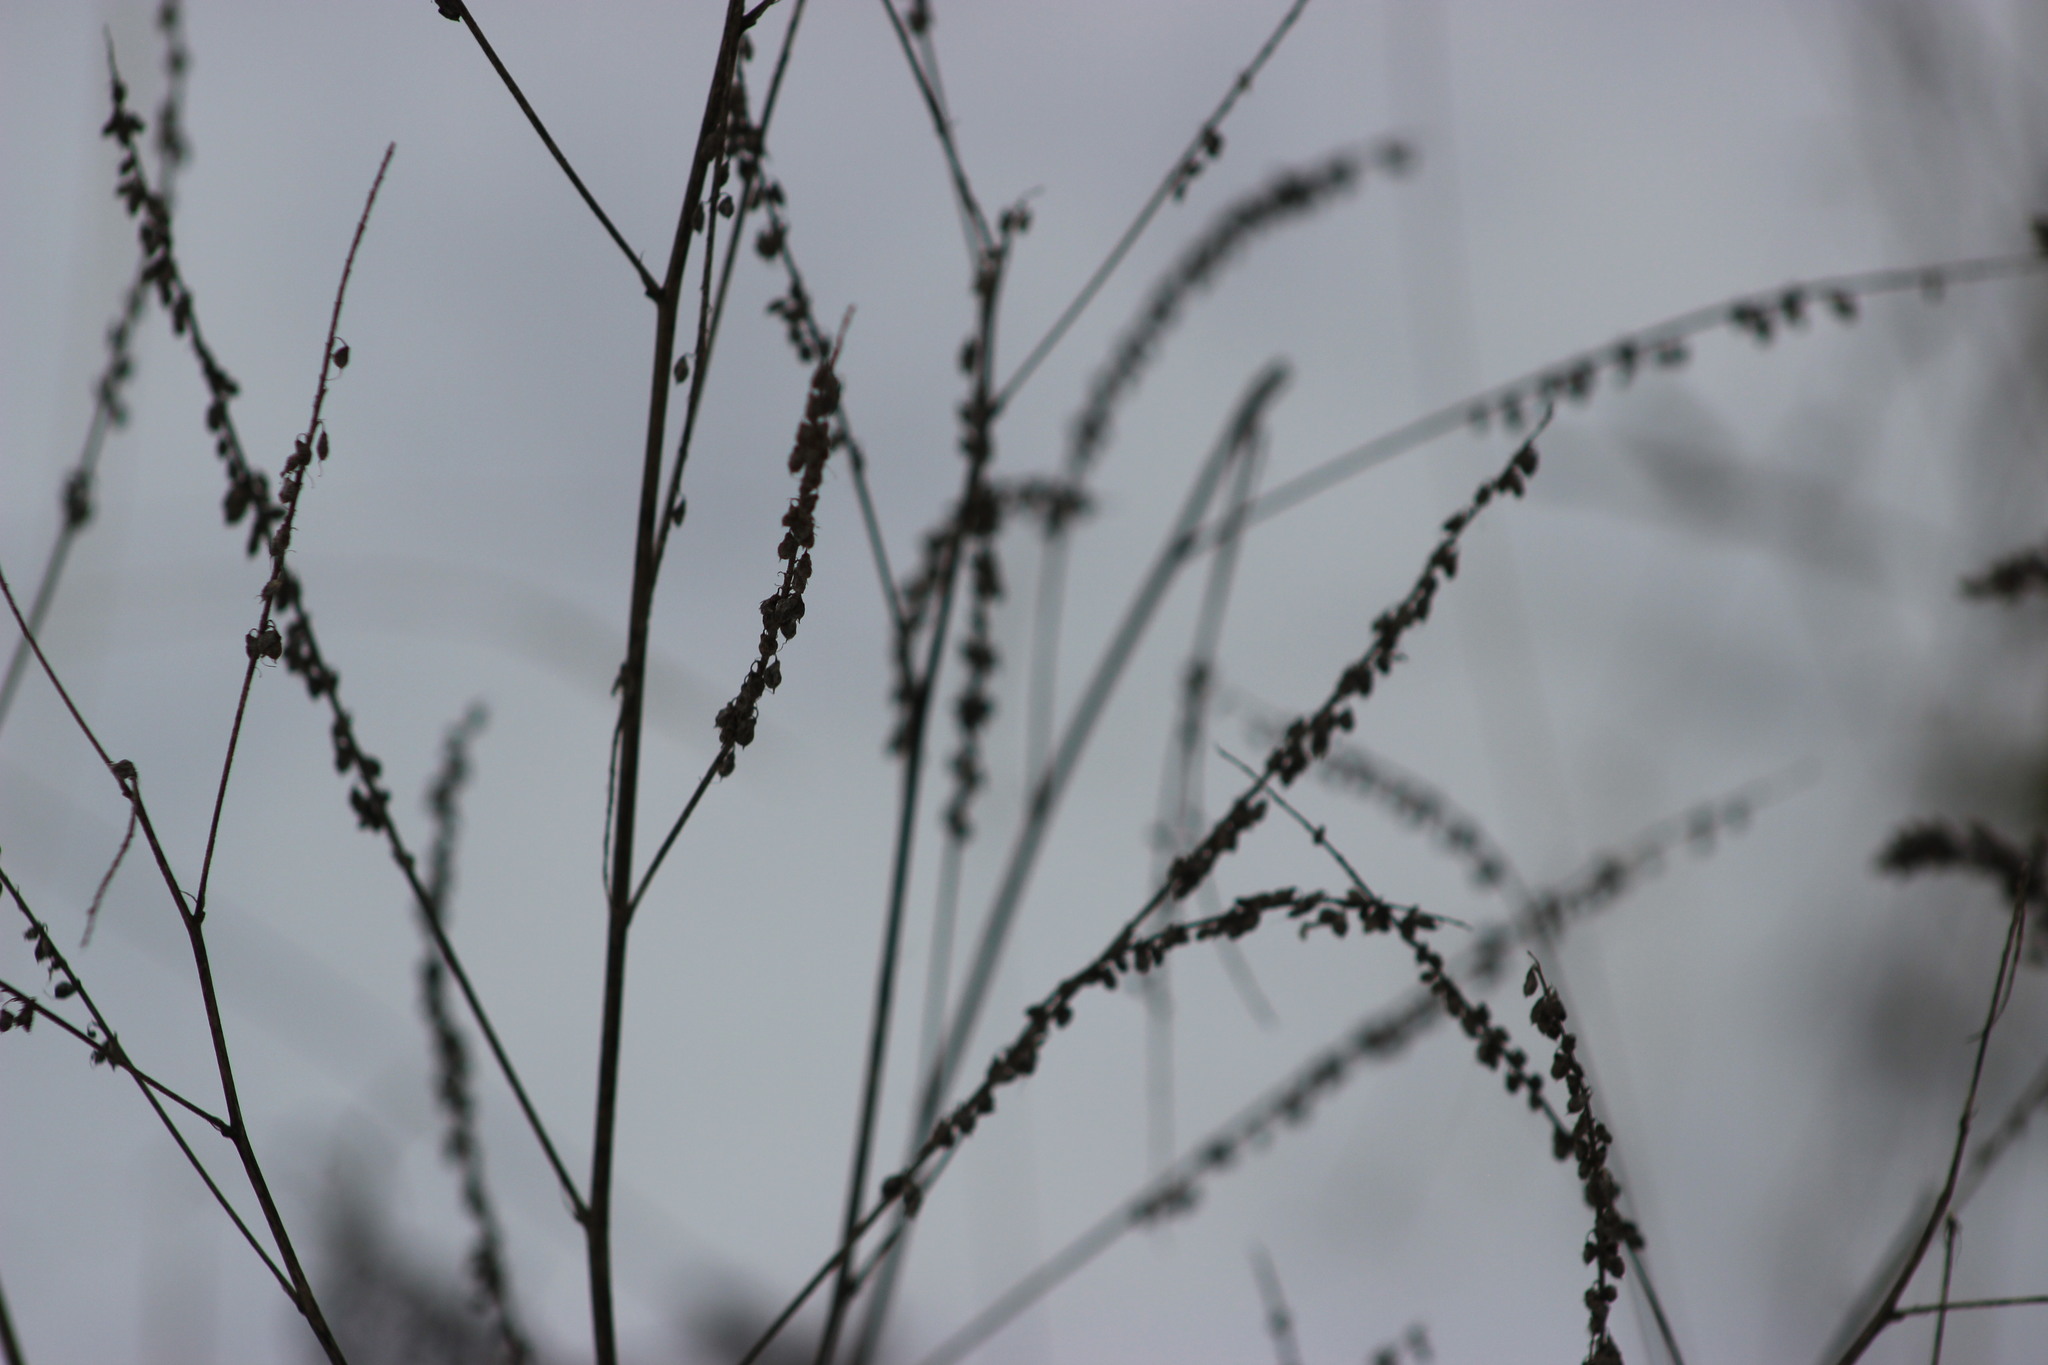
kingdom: Plantae
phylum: Tracheophyta
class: Magnoliopsida
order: Fabales
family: Fabaceae
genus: Melilotus
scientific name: Melilotus officinalis
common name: Sweetclover
